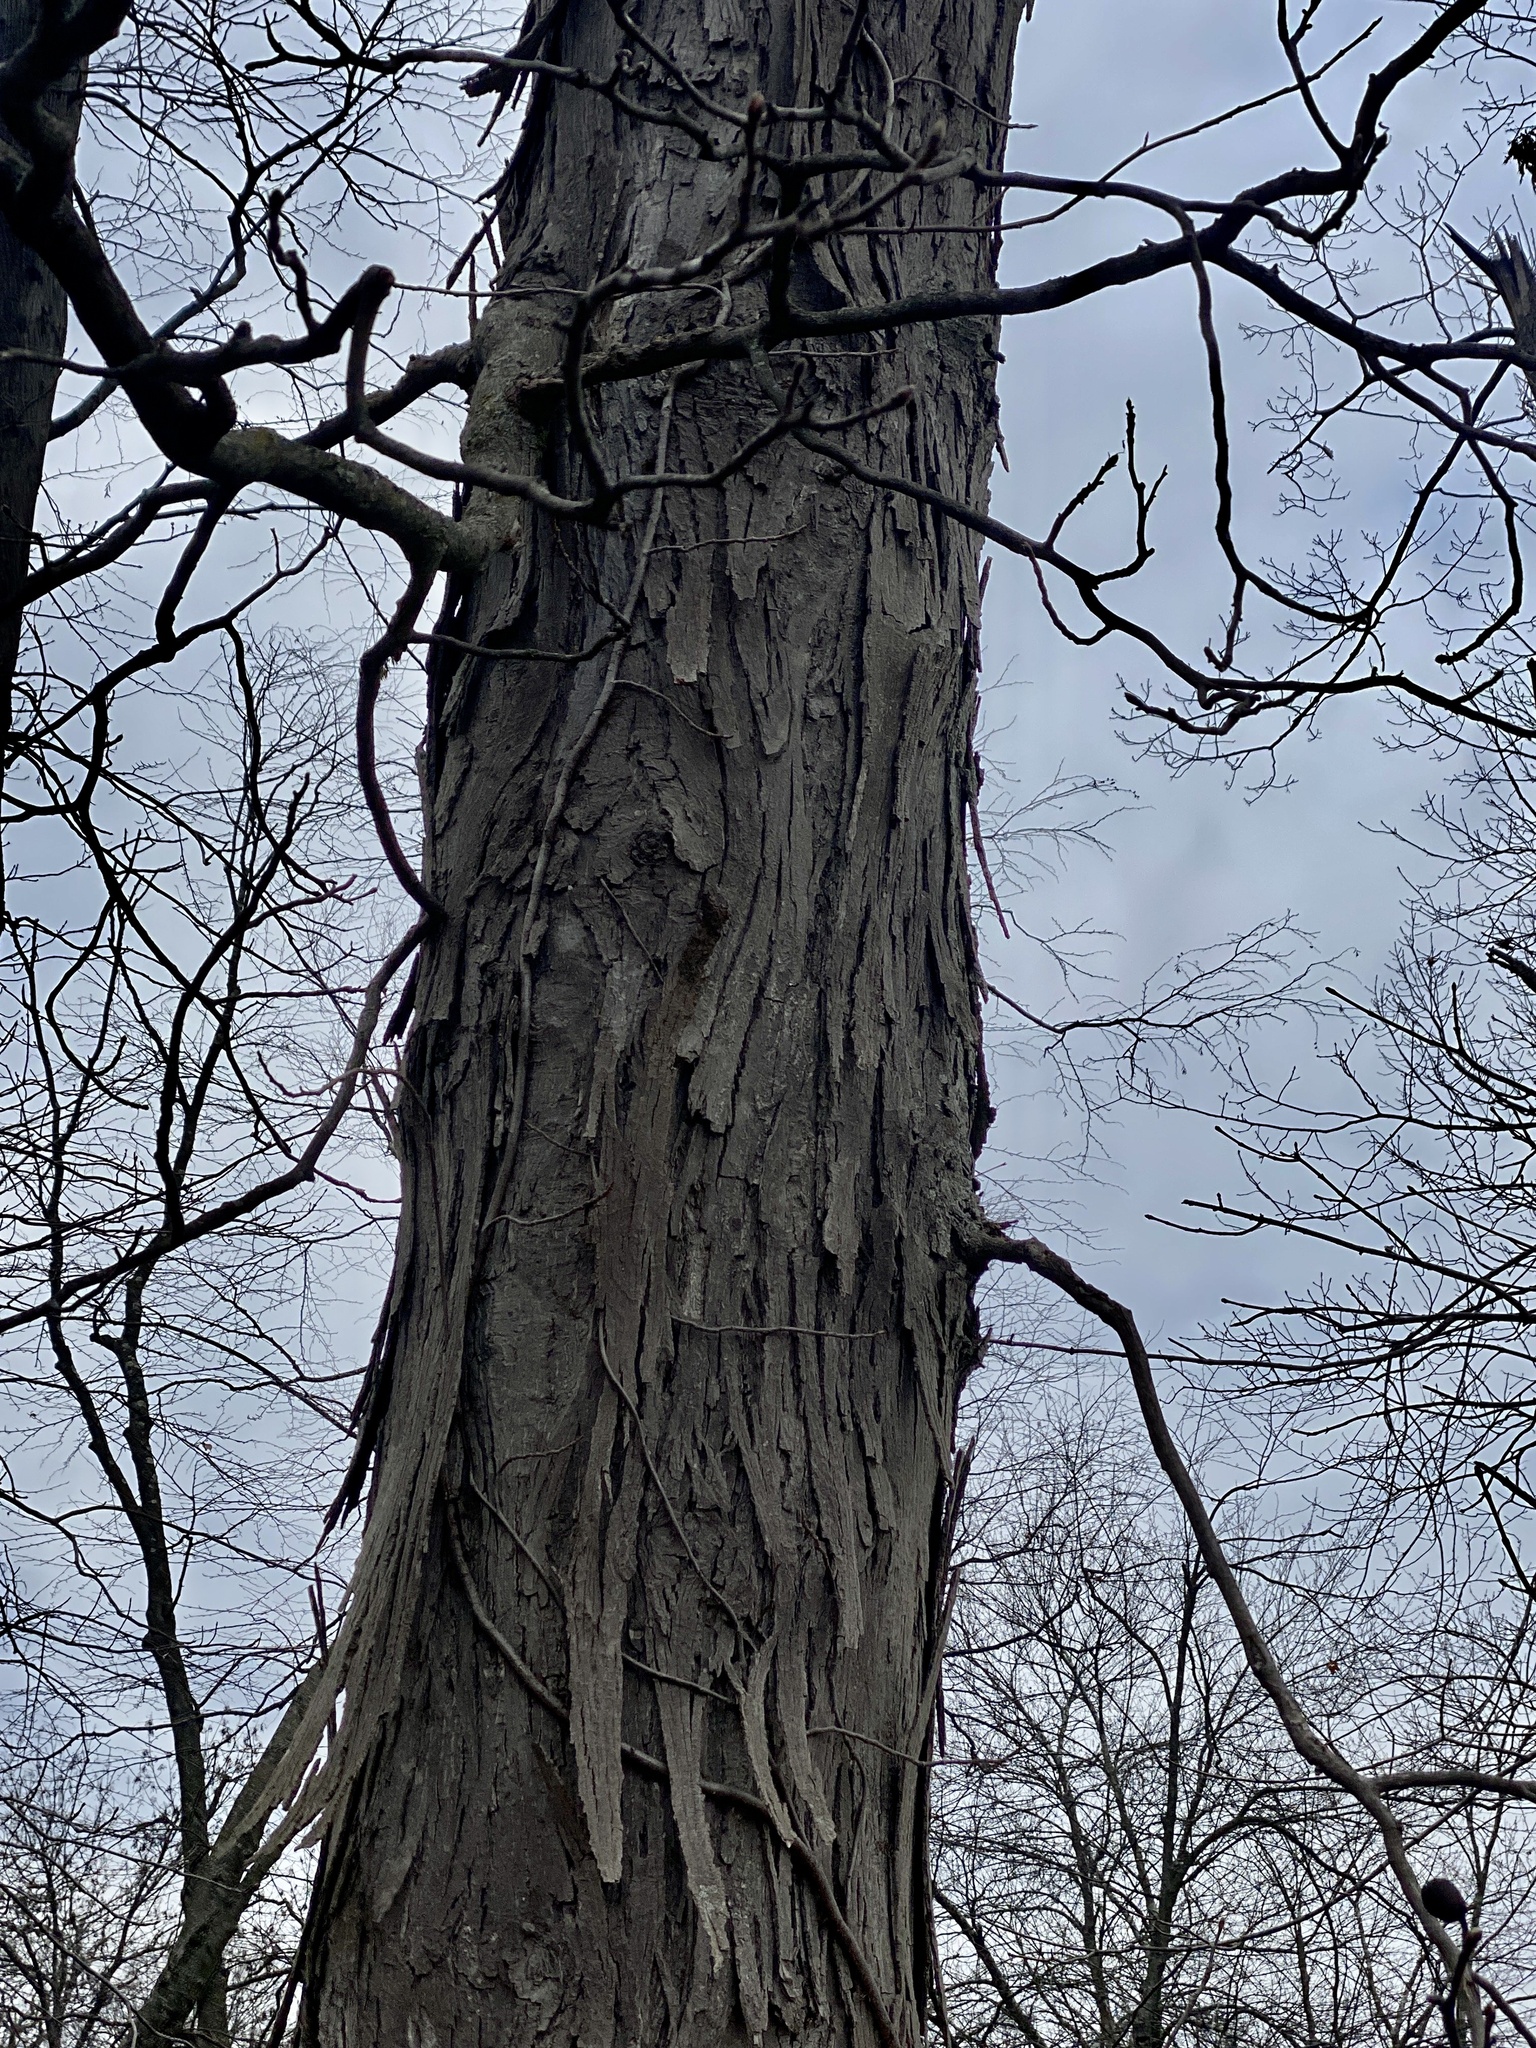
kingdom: Plantae
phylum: Tracheophyta
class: Magnoliopsida
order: Fagales
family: Juglandaceae
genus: Carya
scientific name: Carya ovata
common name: Shagbark hickory
